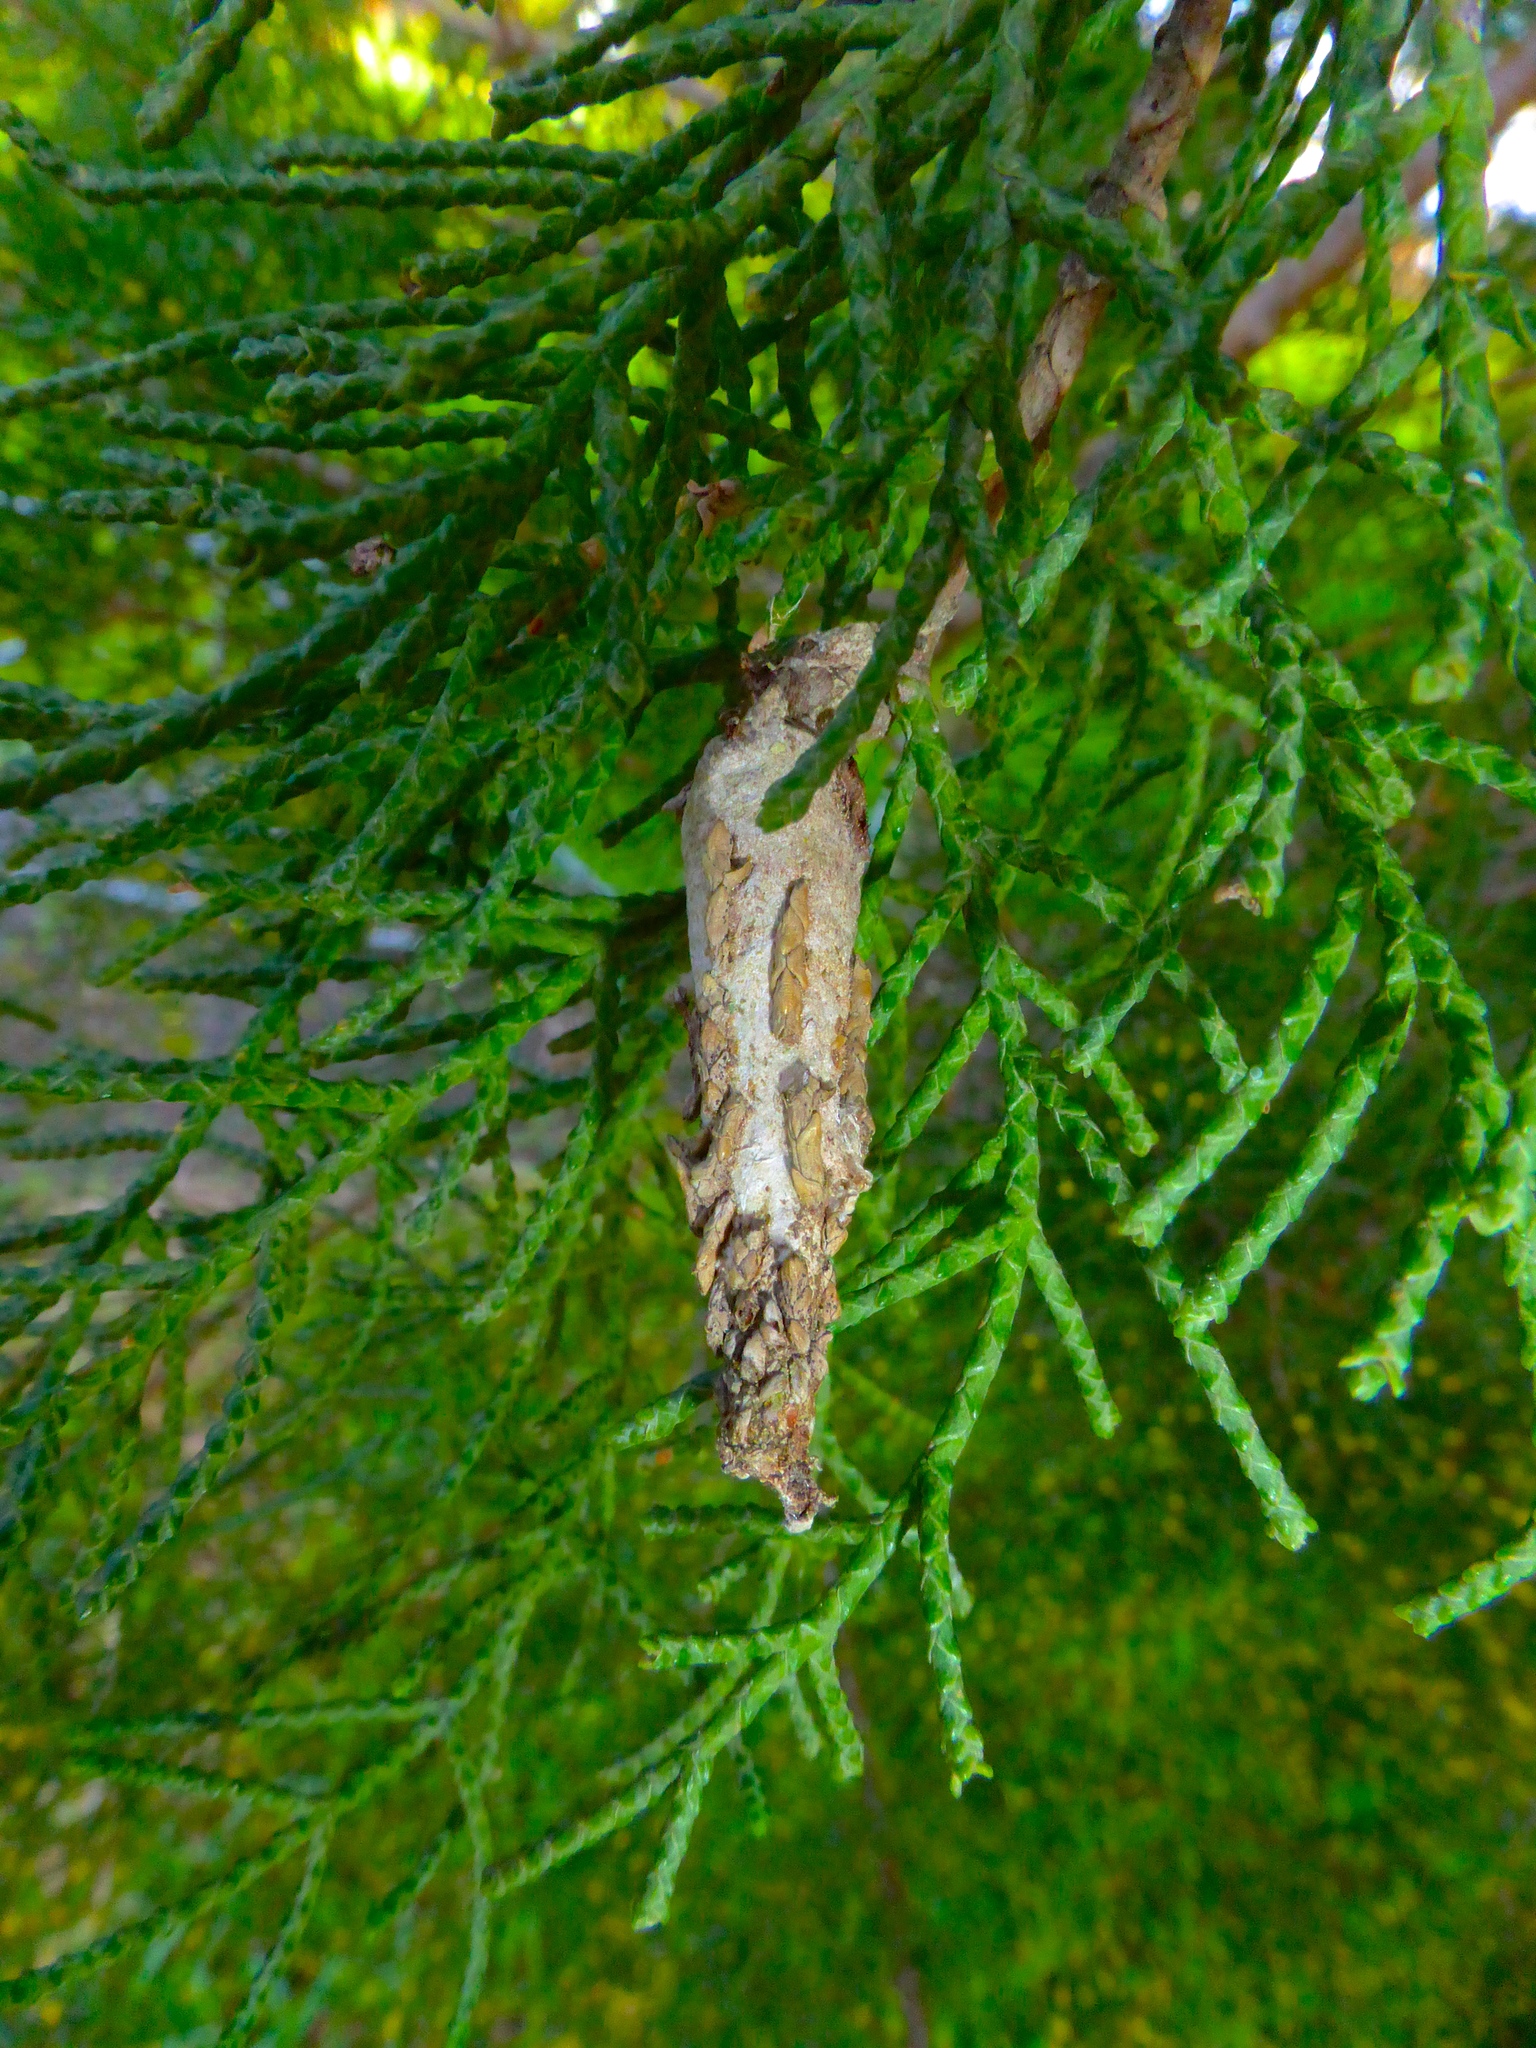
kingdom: Animalia
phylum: Arthropoda
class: Insecta
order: Lepidoptera
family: Psychidae
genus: Liothula
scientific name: Liothula omnivora
